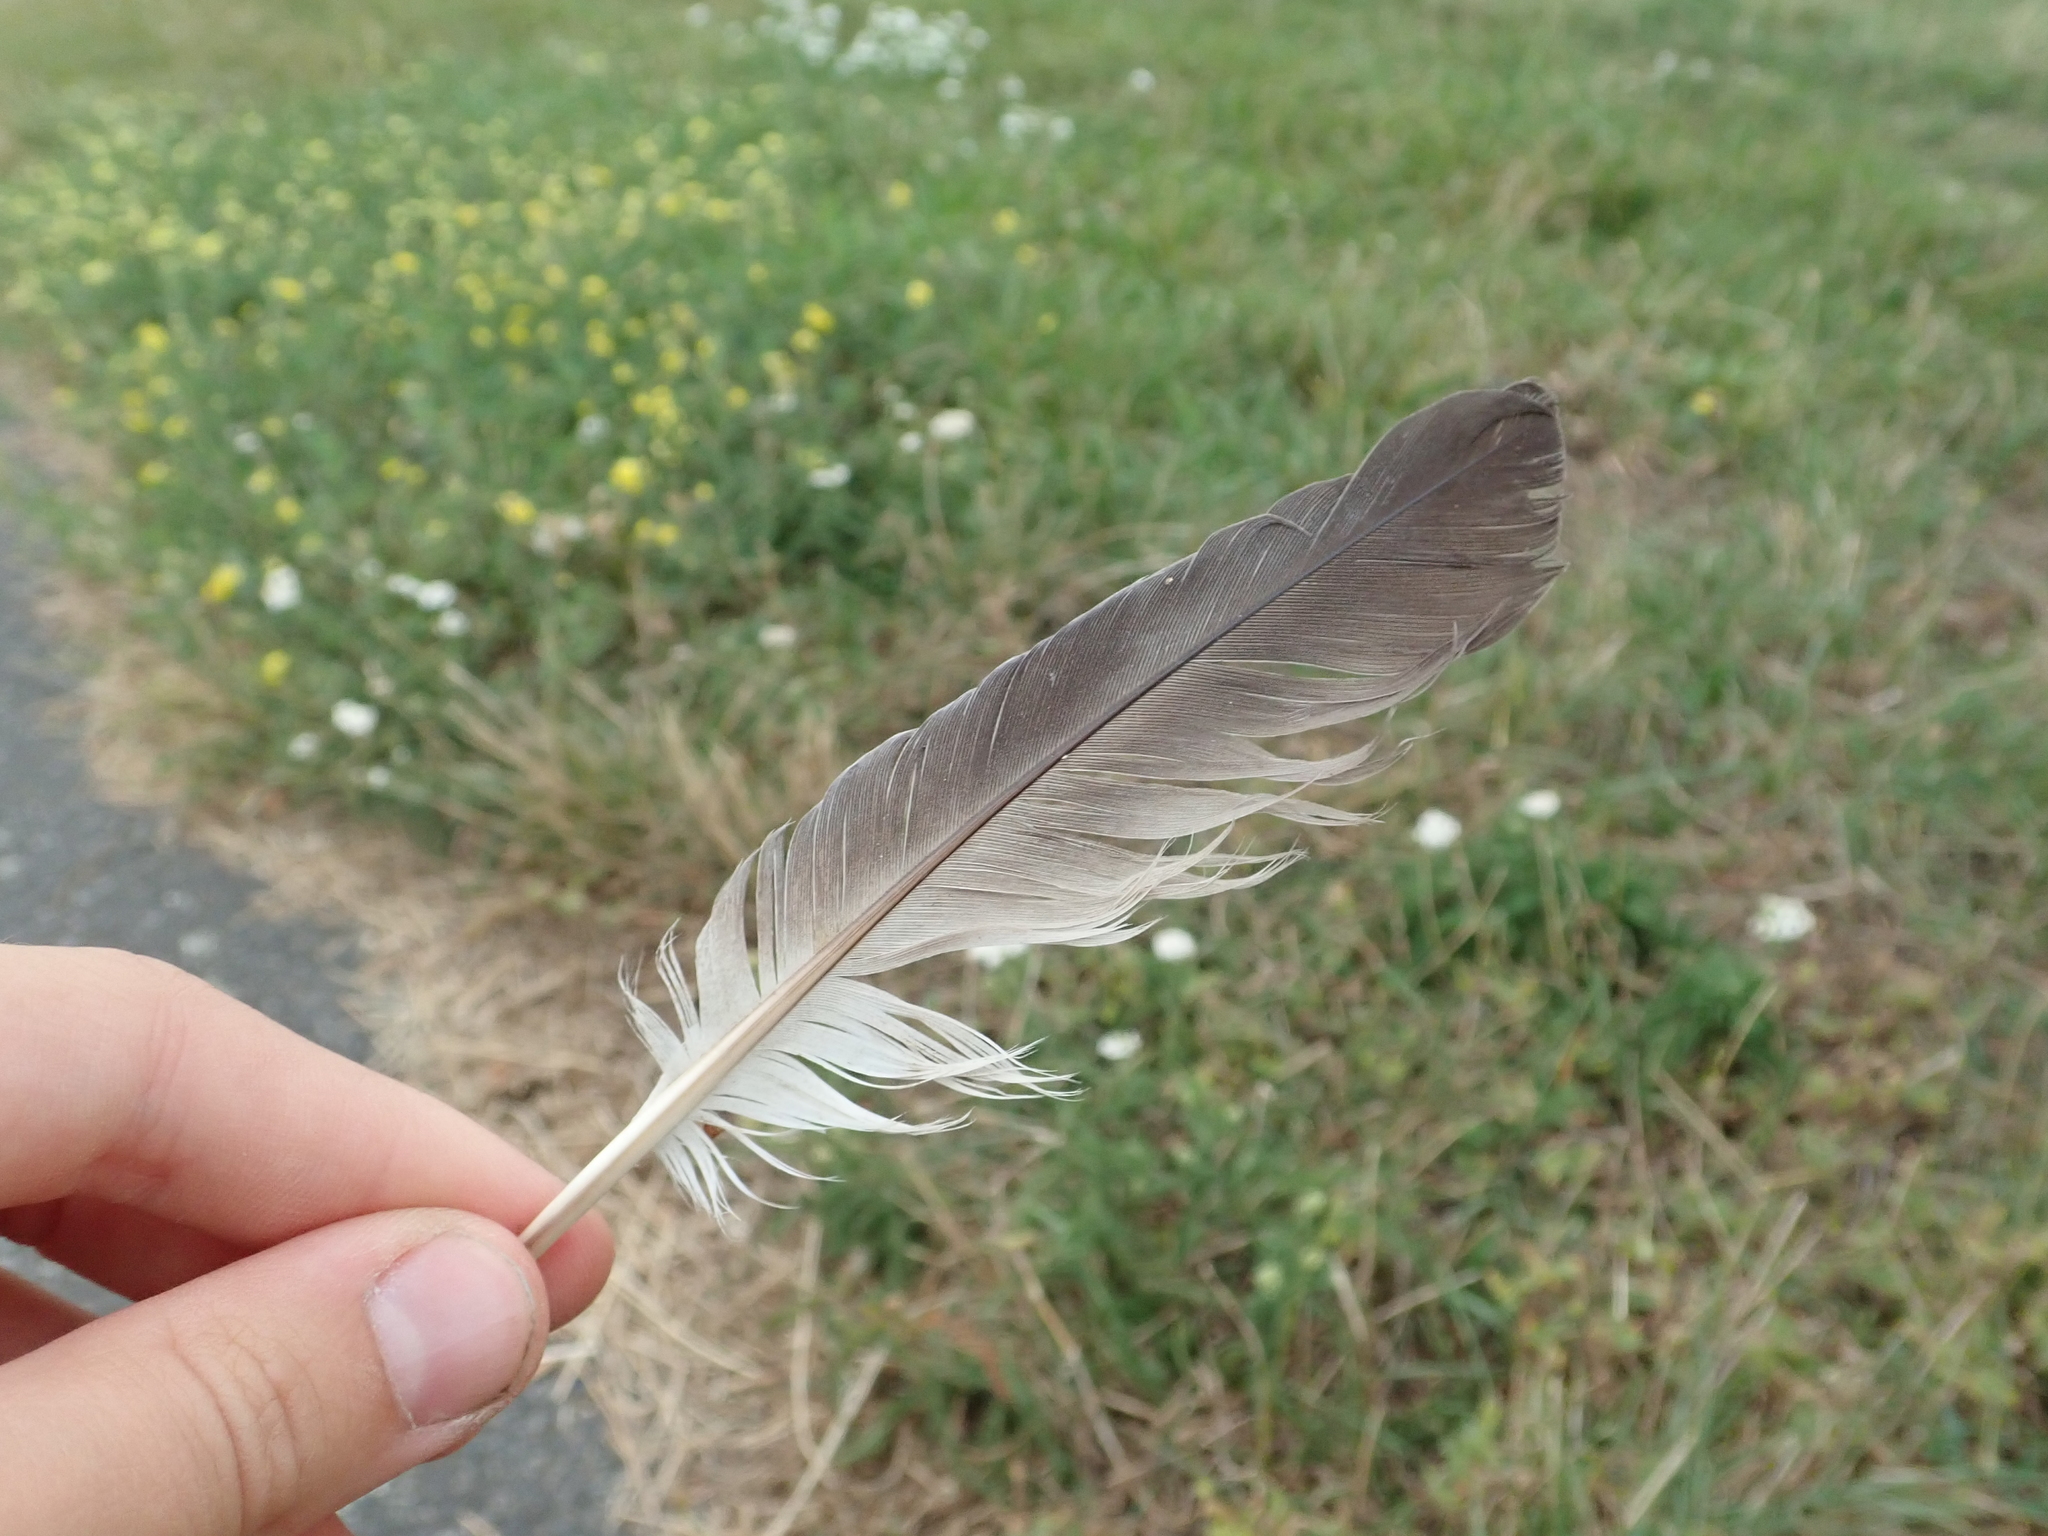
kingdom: Animalia
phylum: Chordata
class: Aves
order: Columbiformes
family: Columbidae
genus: Columba
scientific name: Columba livia
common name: Rock pigeon
